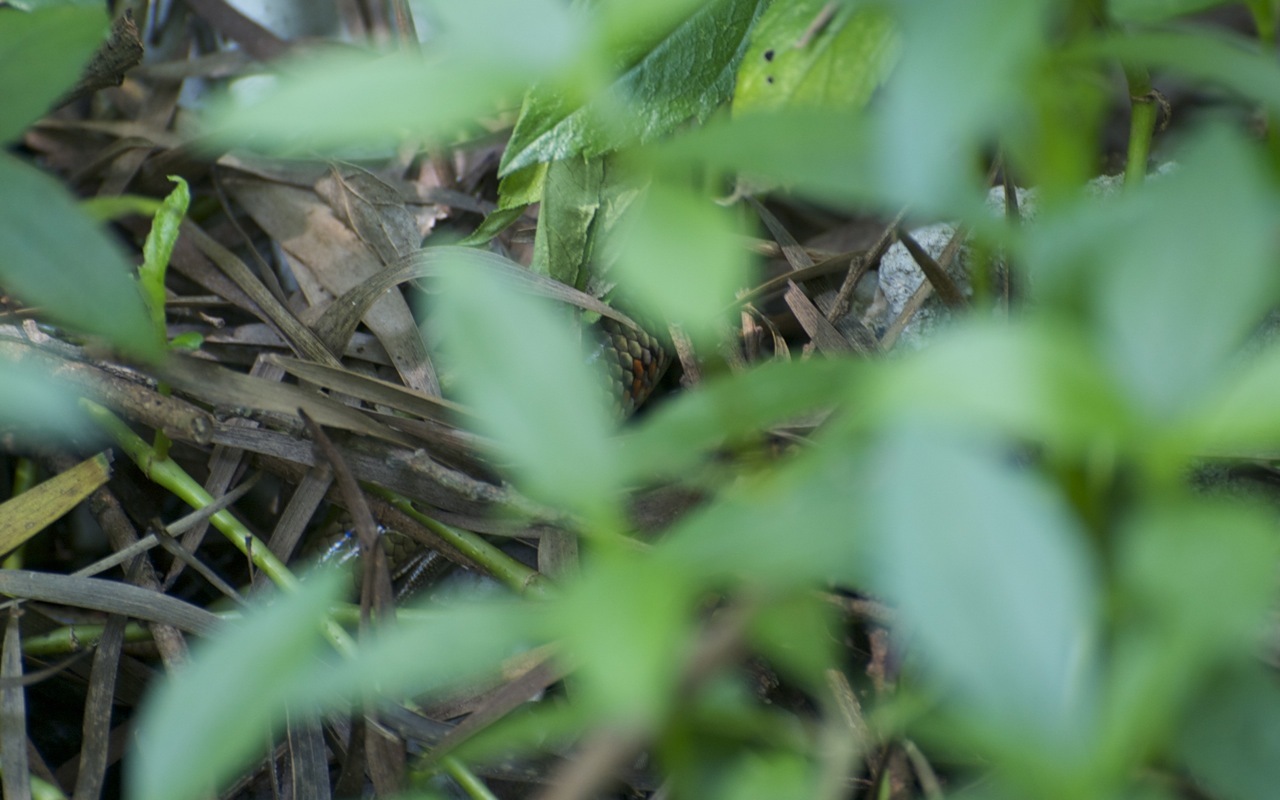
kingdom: Animalia
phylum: Chordata
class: Squamata
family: Scincidae
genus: Plestiodon
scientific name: Plestiodon chinensis
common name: Chinese blue-tailed skink
